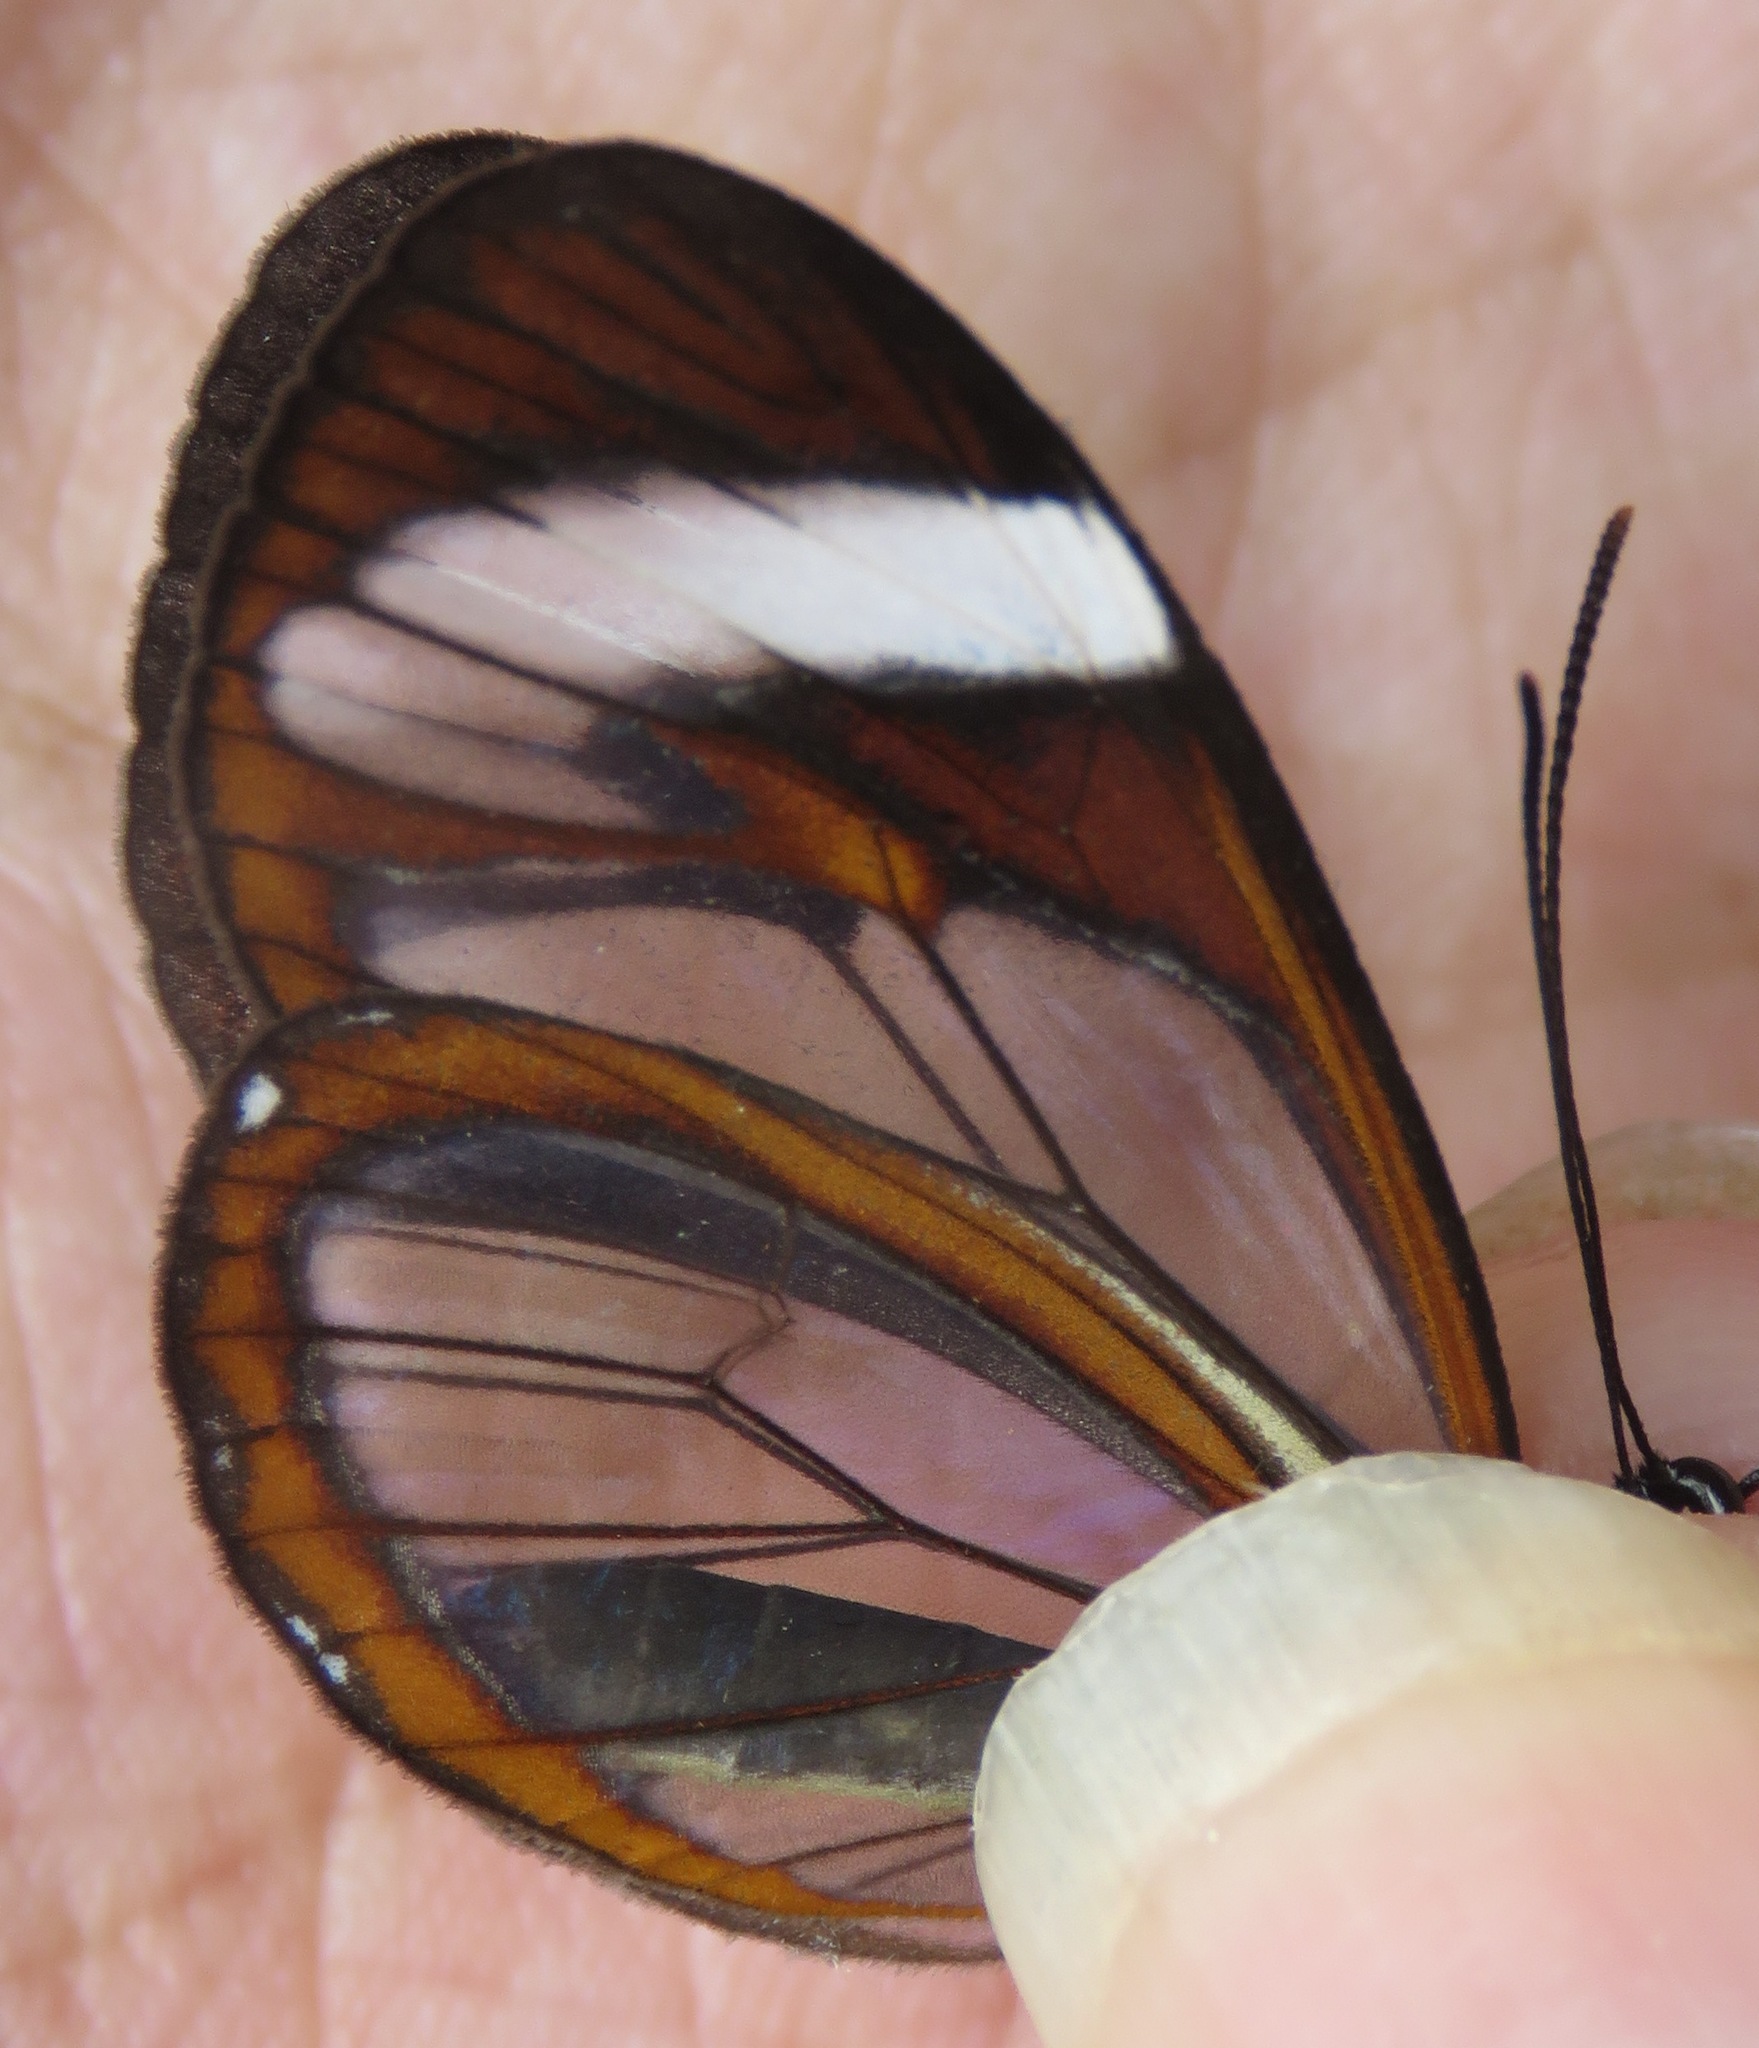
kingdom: Animalia
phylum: Arthropoda
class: Insecta
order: Lepidoptera
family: Nymphalidae
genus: Ithomia
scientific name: Ithomia patilla
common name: Patilla clearwing
